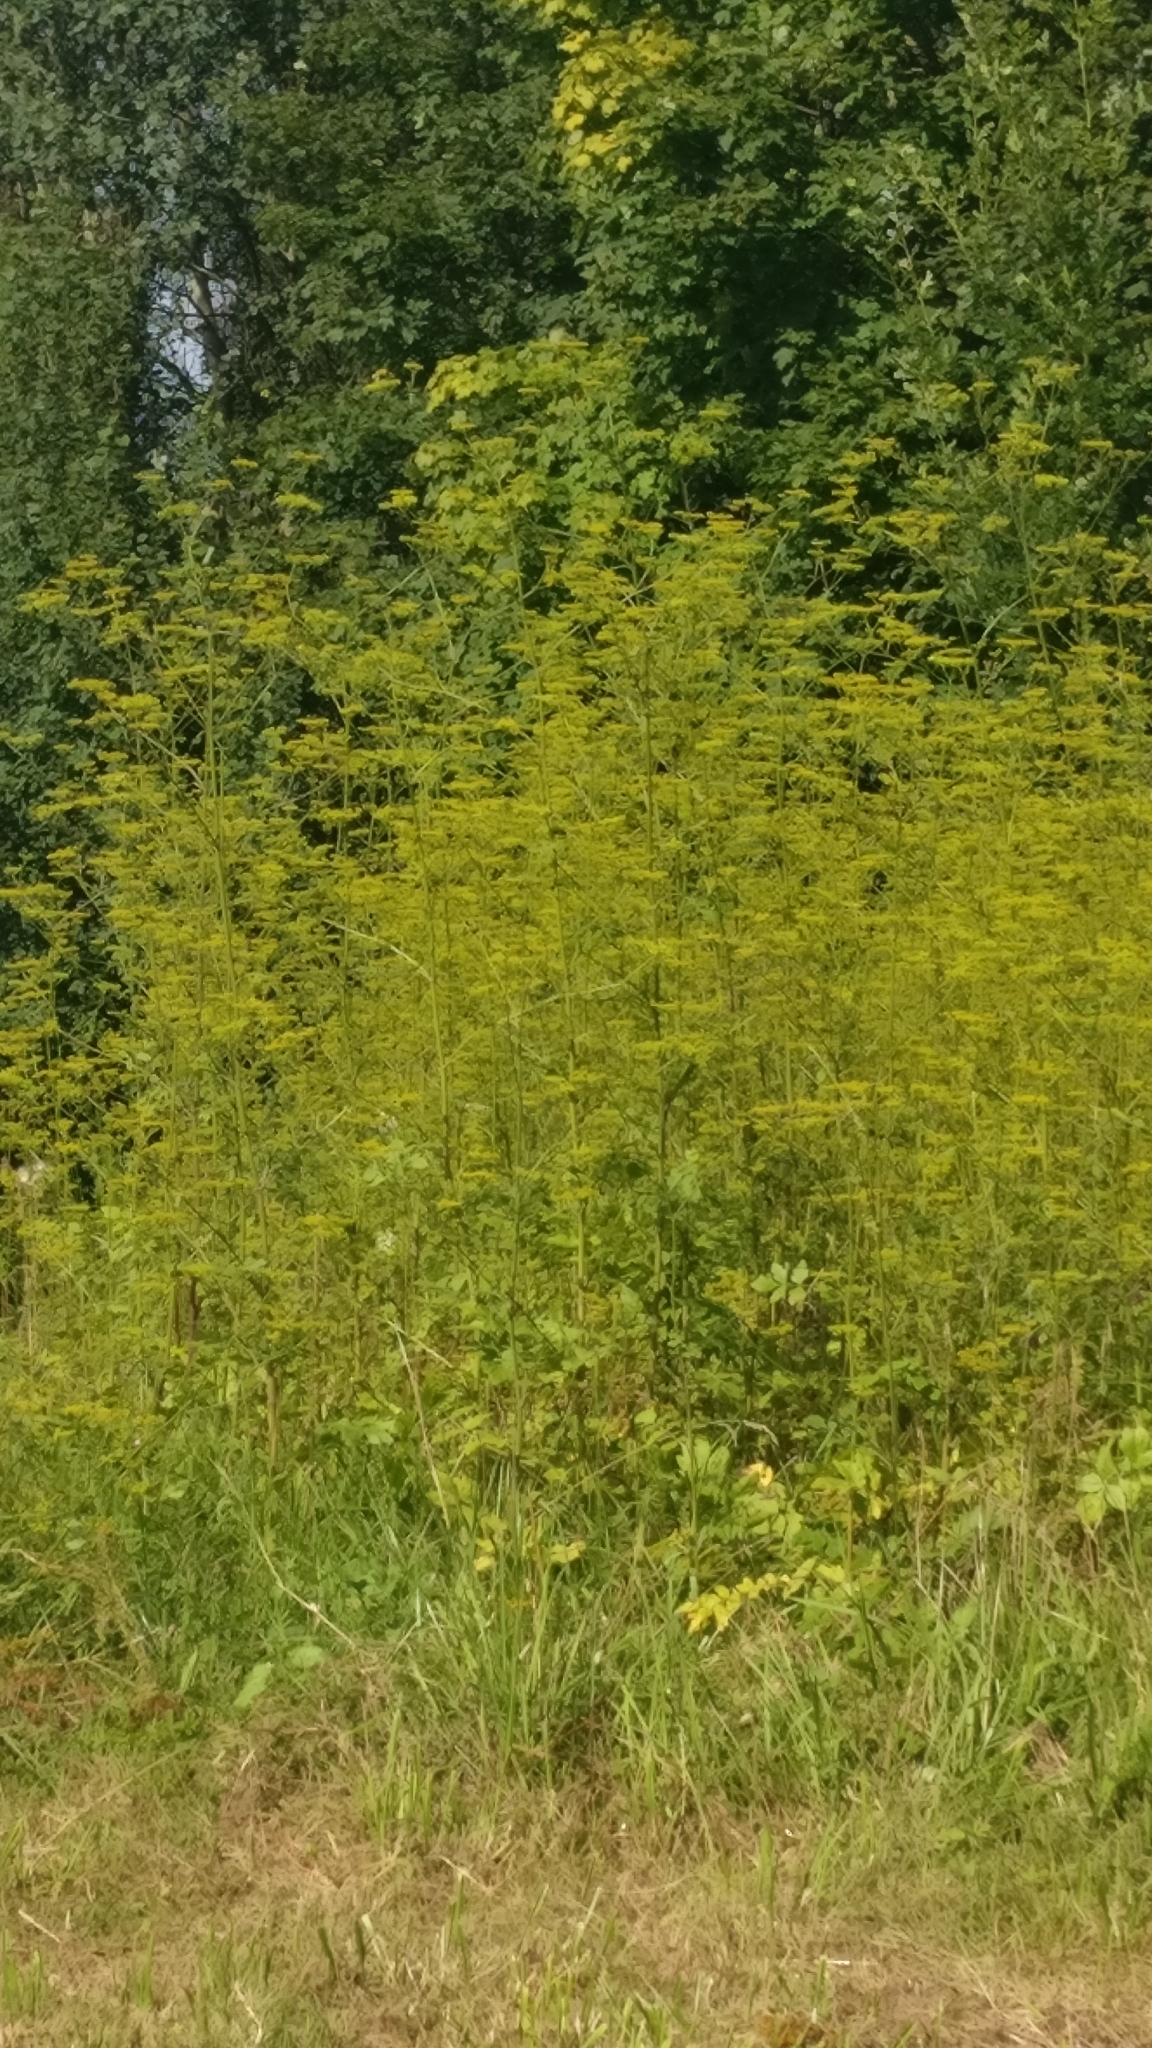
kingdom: Plantae
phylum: Tracheophyta
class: Magnoliopsida
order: Apiales
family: Apiaceae
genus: Pastinaca
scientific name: Pastinaca sativa
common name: Wild parsnip
